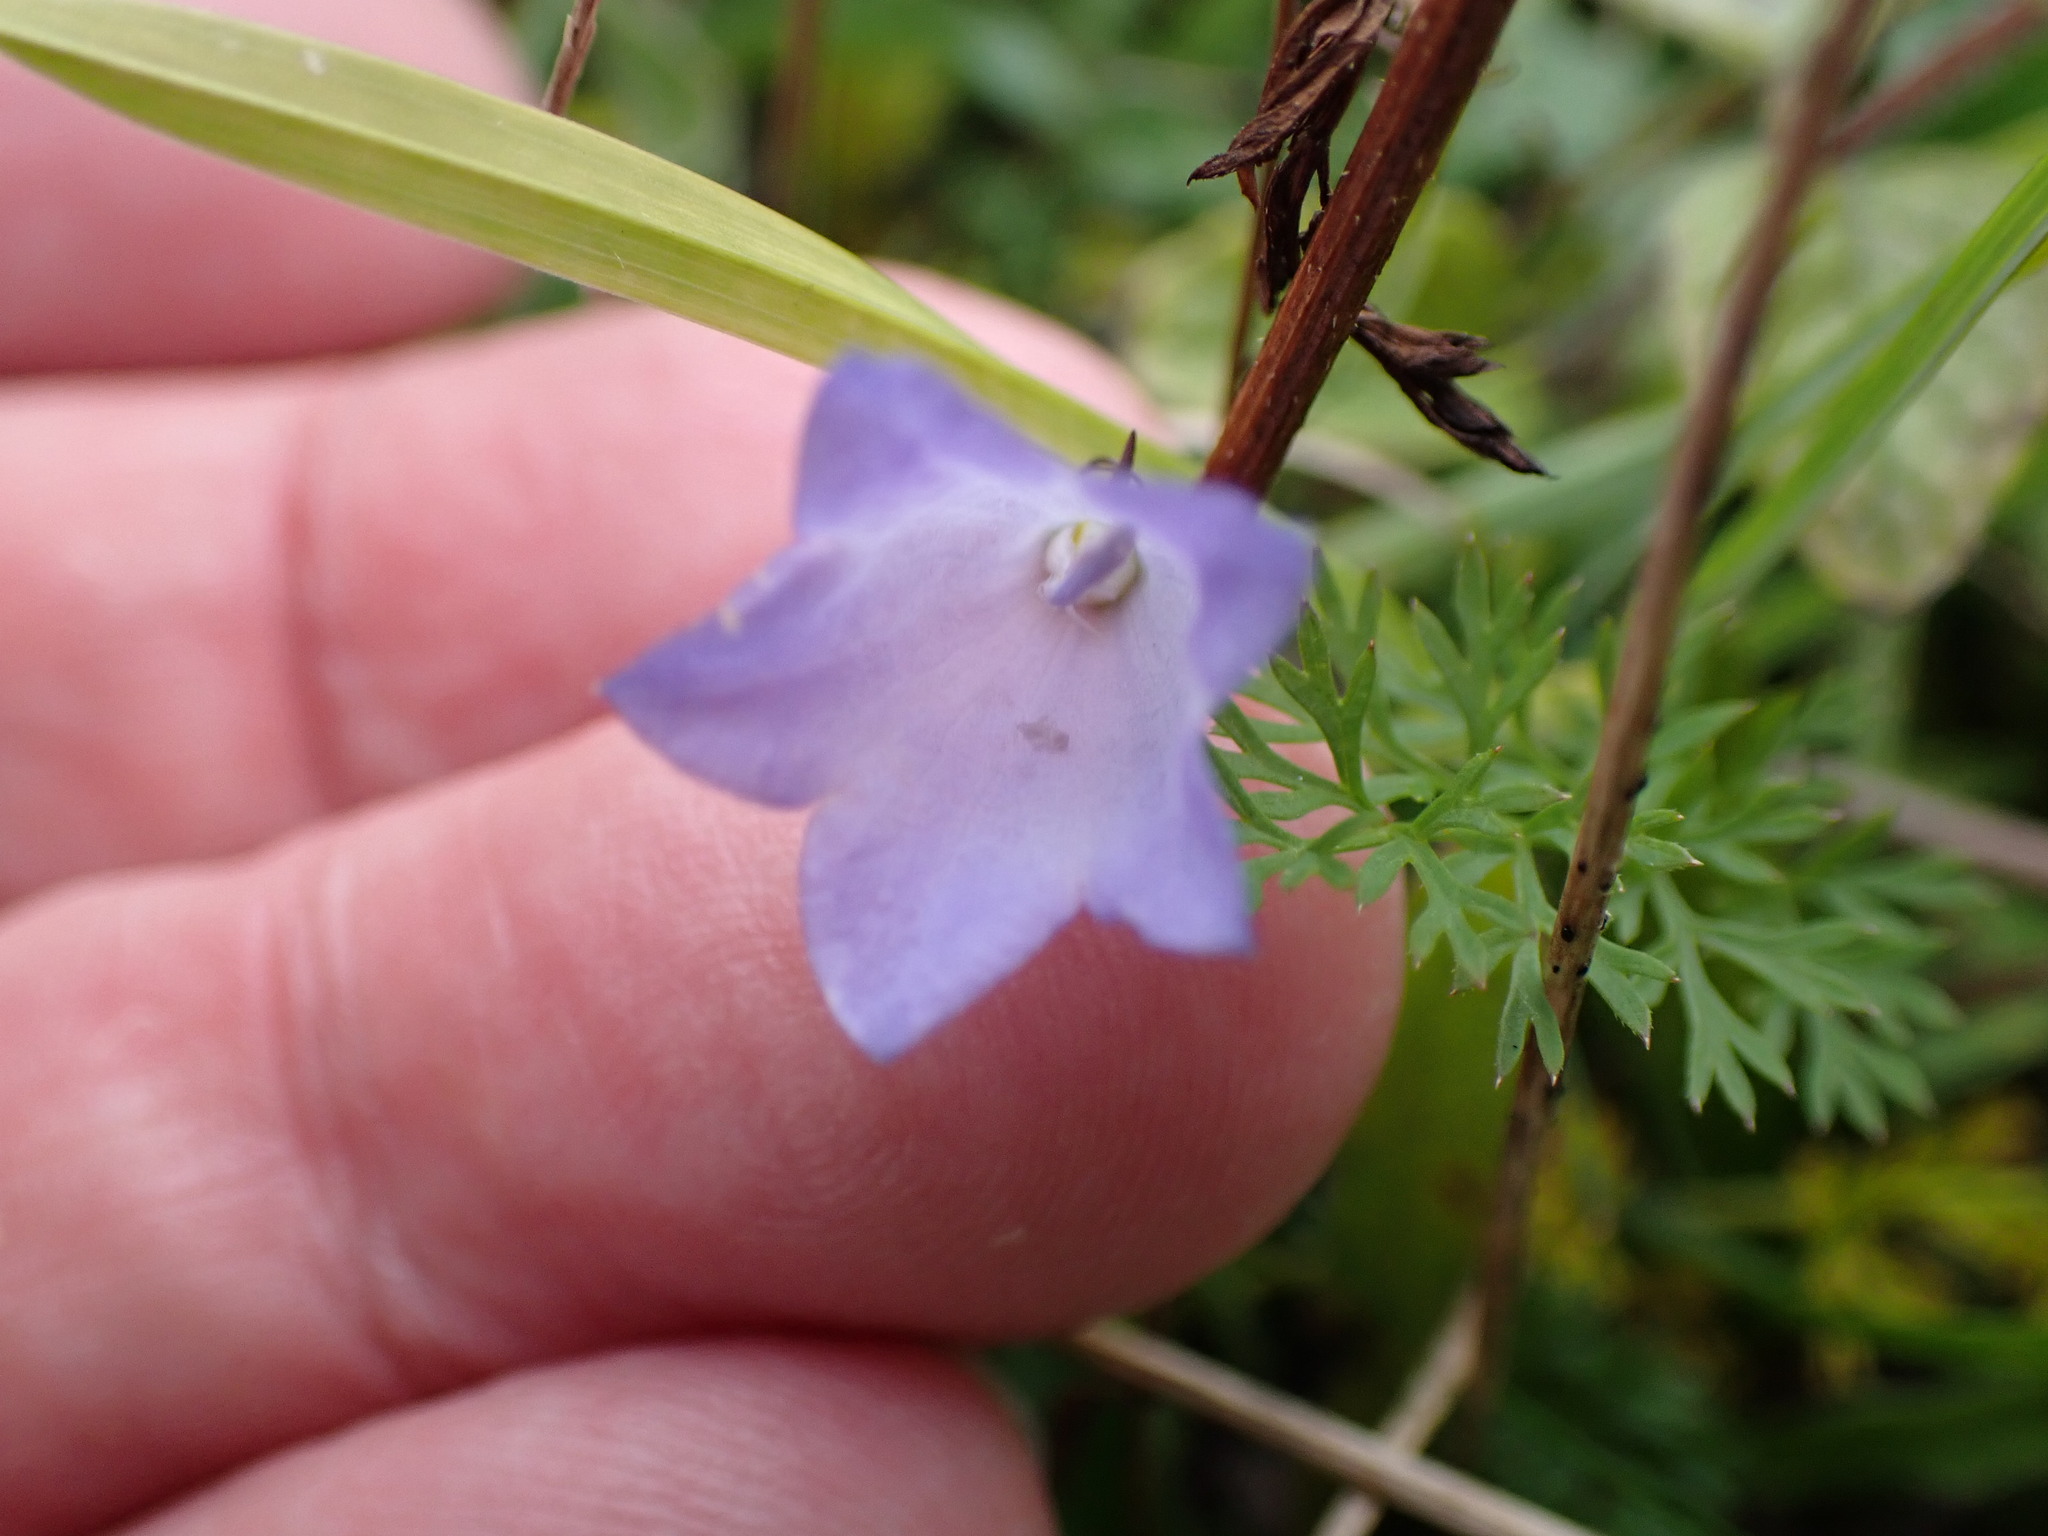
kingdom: Plantae
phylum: Tracheophyta
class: Magnoliopsida
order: Asterales
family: Campanulaceae
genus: Campanula
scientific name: Campanula rotundifolia
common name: Harebell
